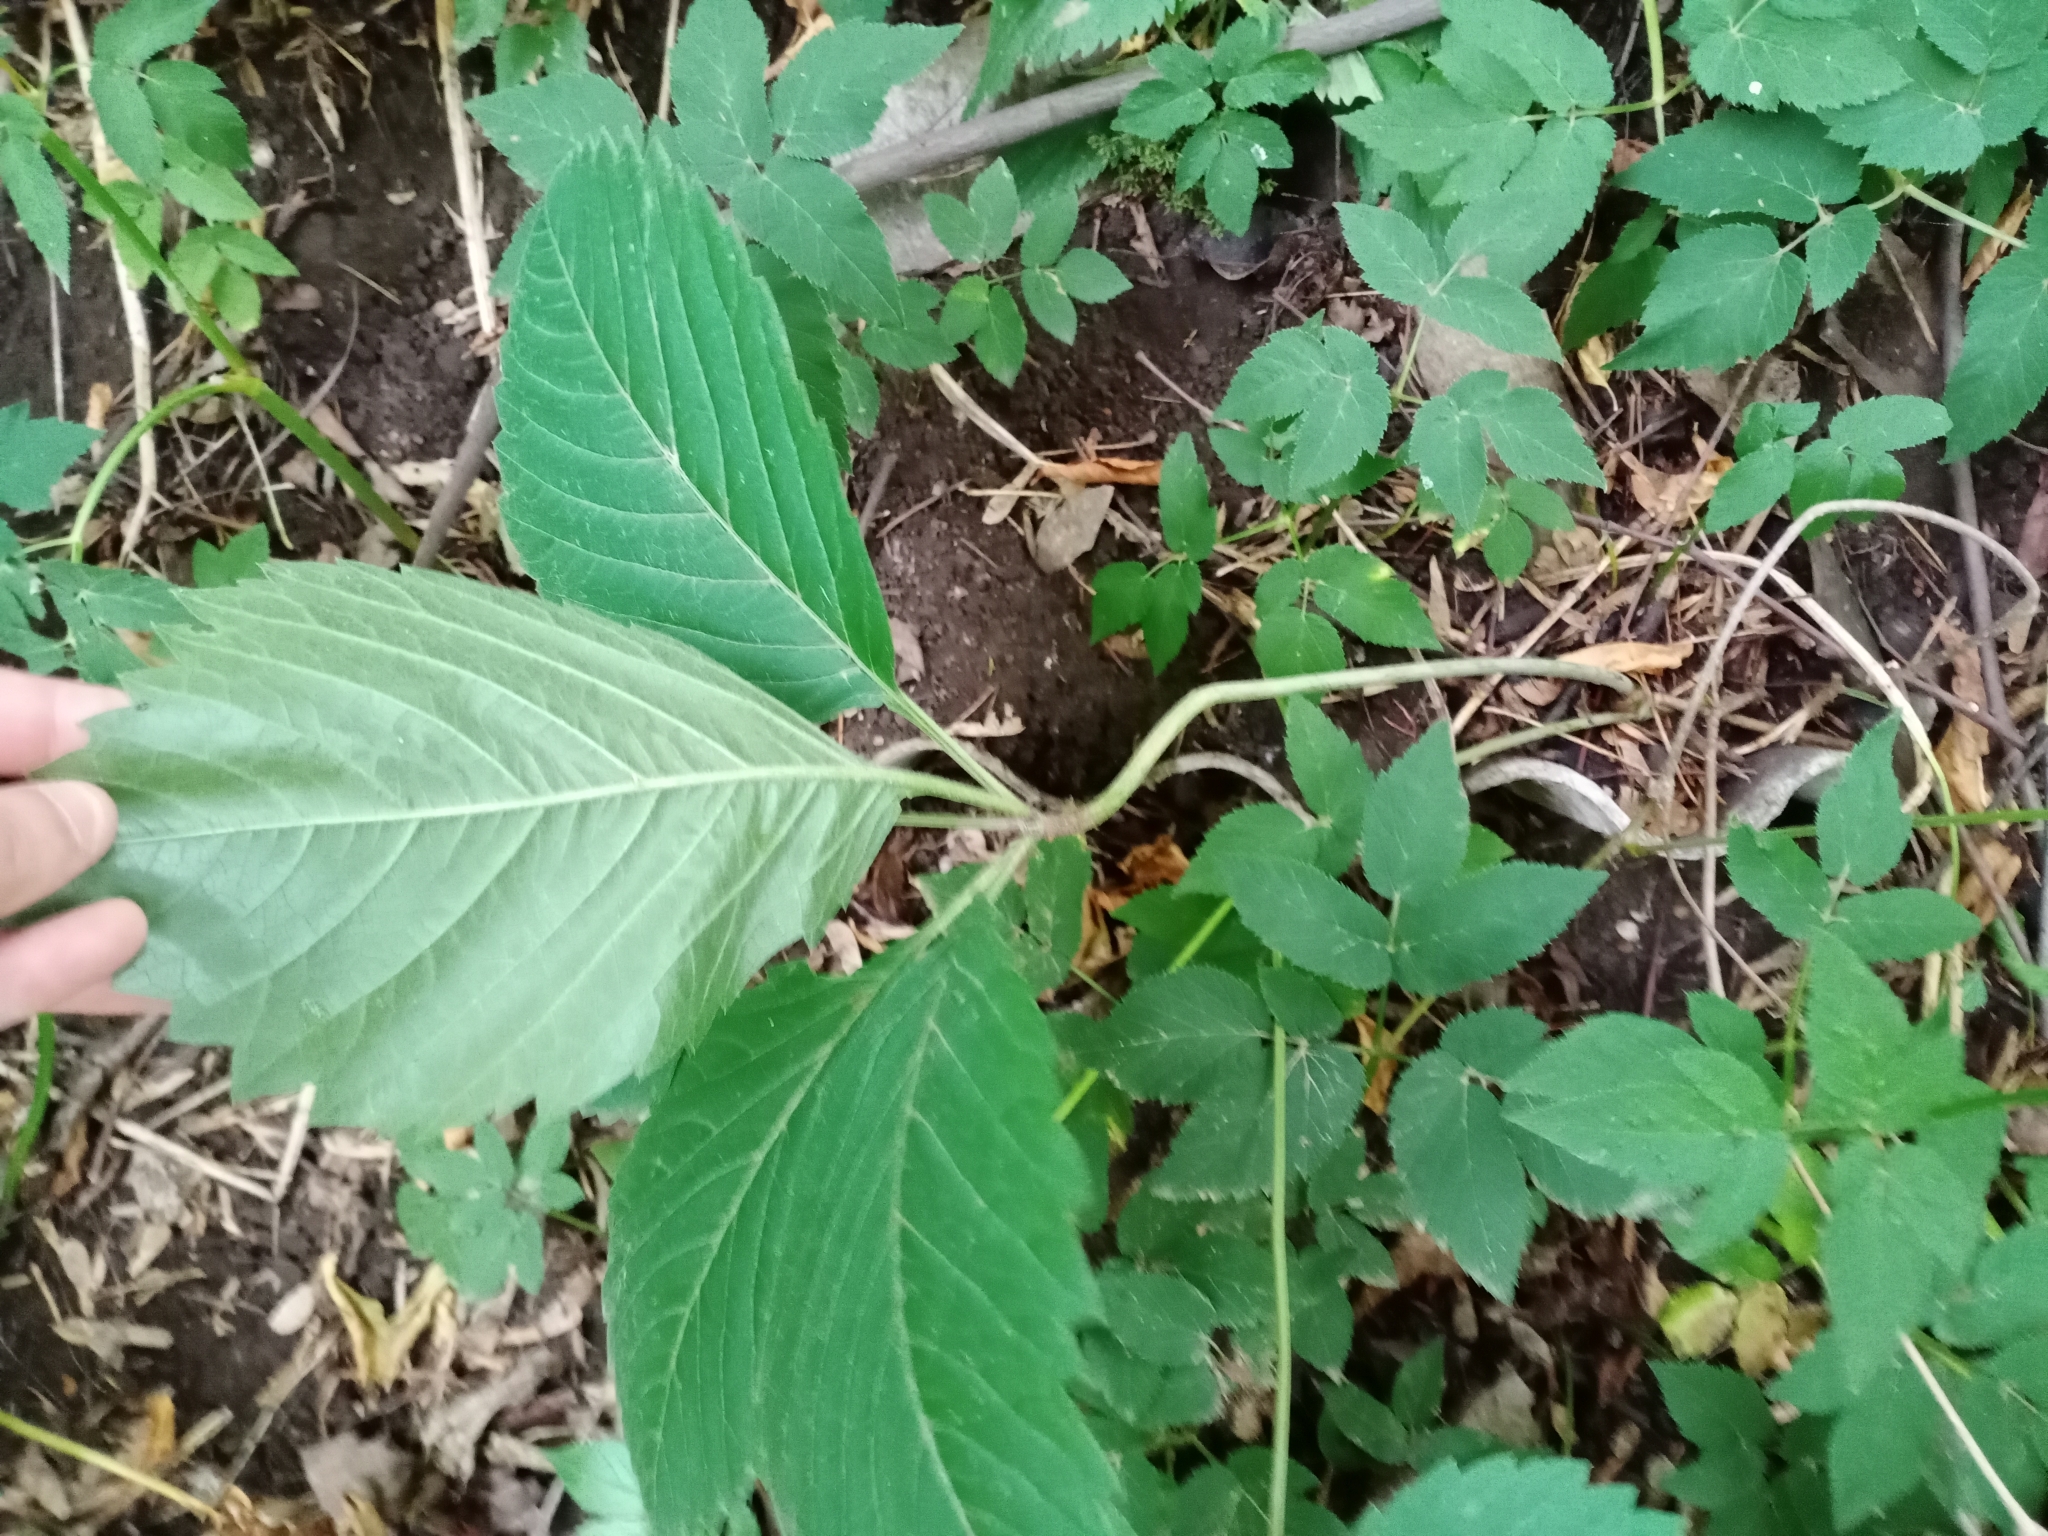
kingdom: Plantae
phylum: Tracheophyta
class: Magnoliopsida
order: Vitales
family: Vitaceae
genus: Parthenocissus
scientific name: Parthenocissus inserta
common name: False virginia-creeper
